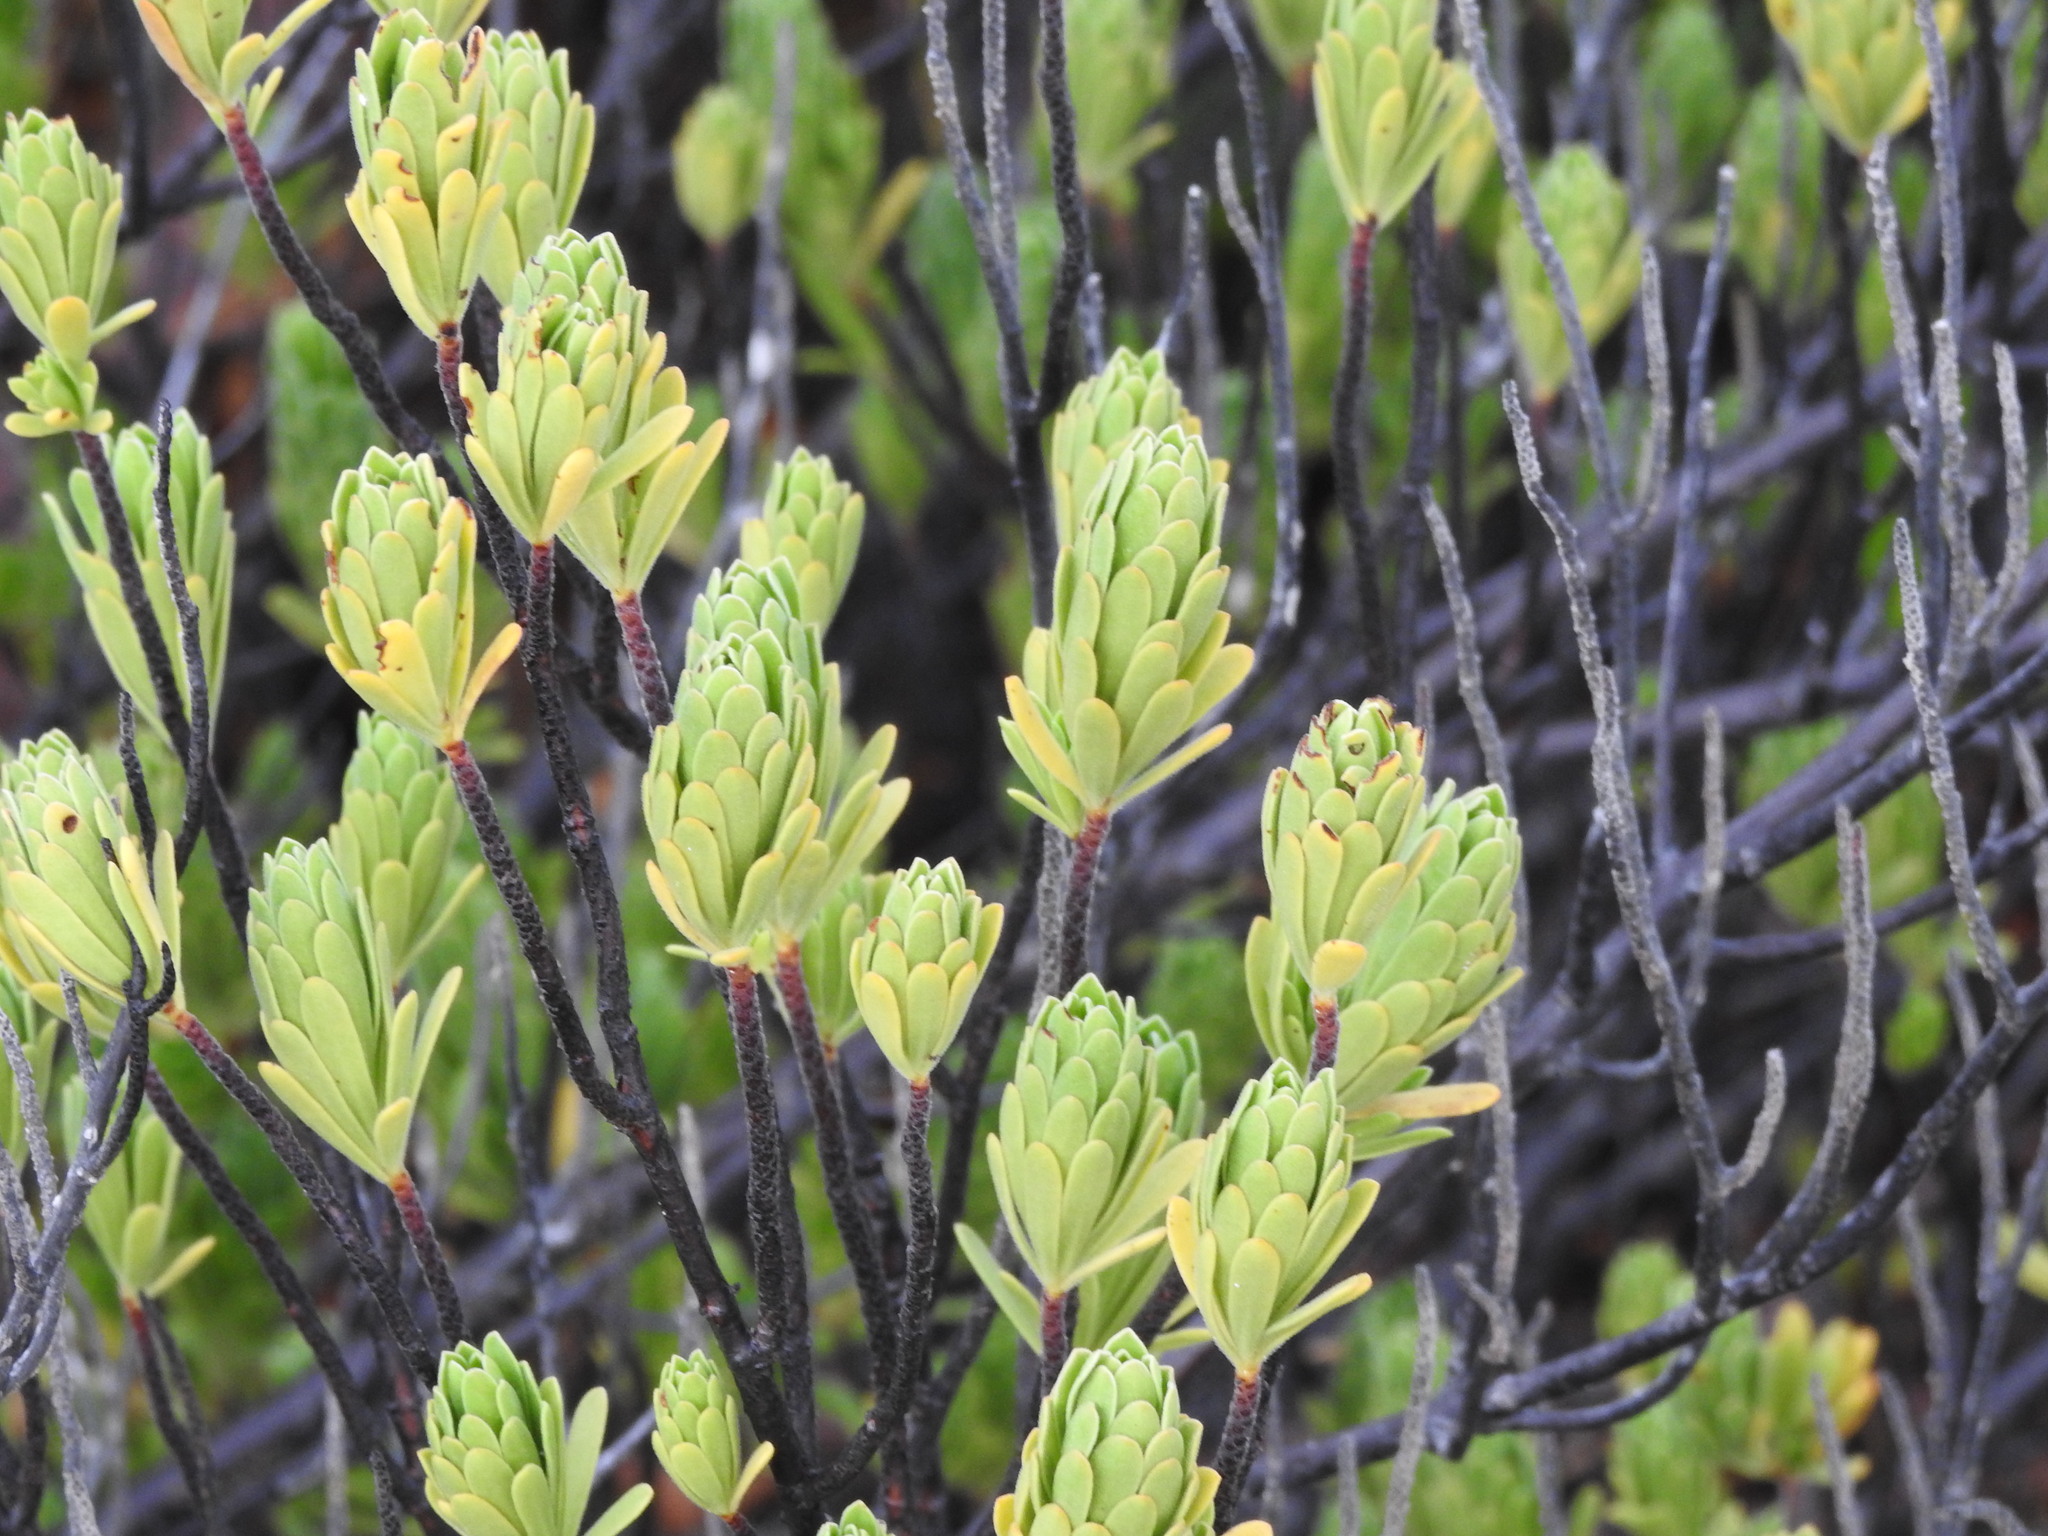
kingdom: Plantae
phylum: Tracheophyta
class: Magnoliopsida
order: Fabales
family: Surianaceae
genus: Suriana
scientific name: Suriana maritima
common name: Bay-cedar
